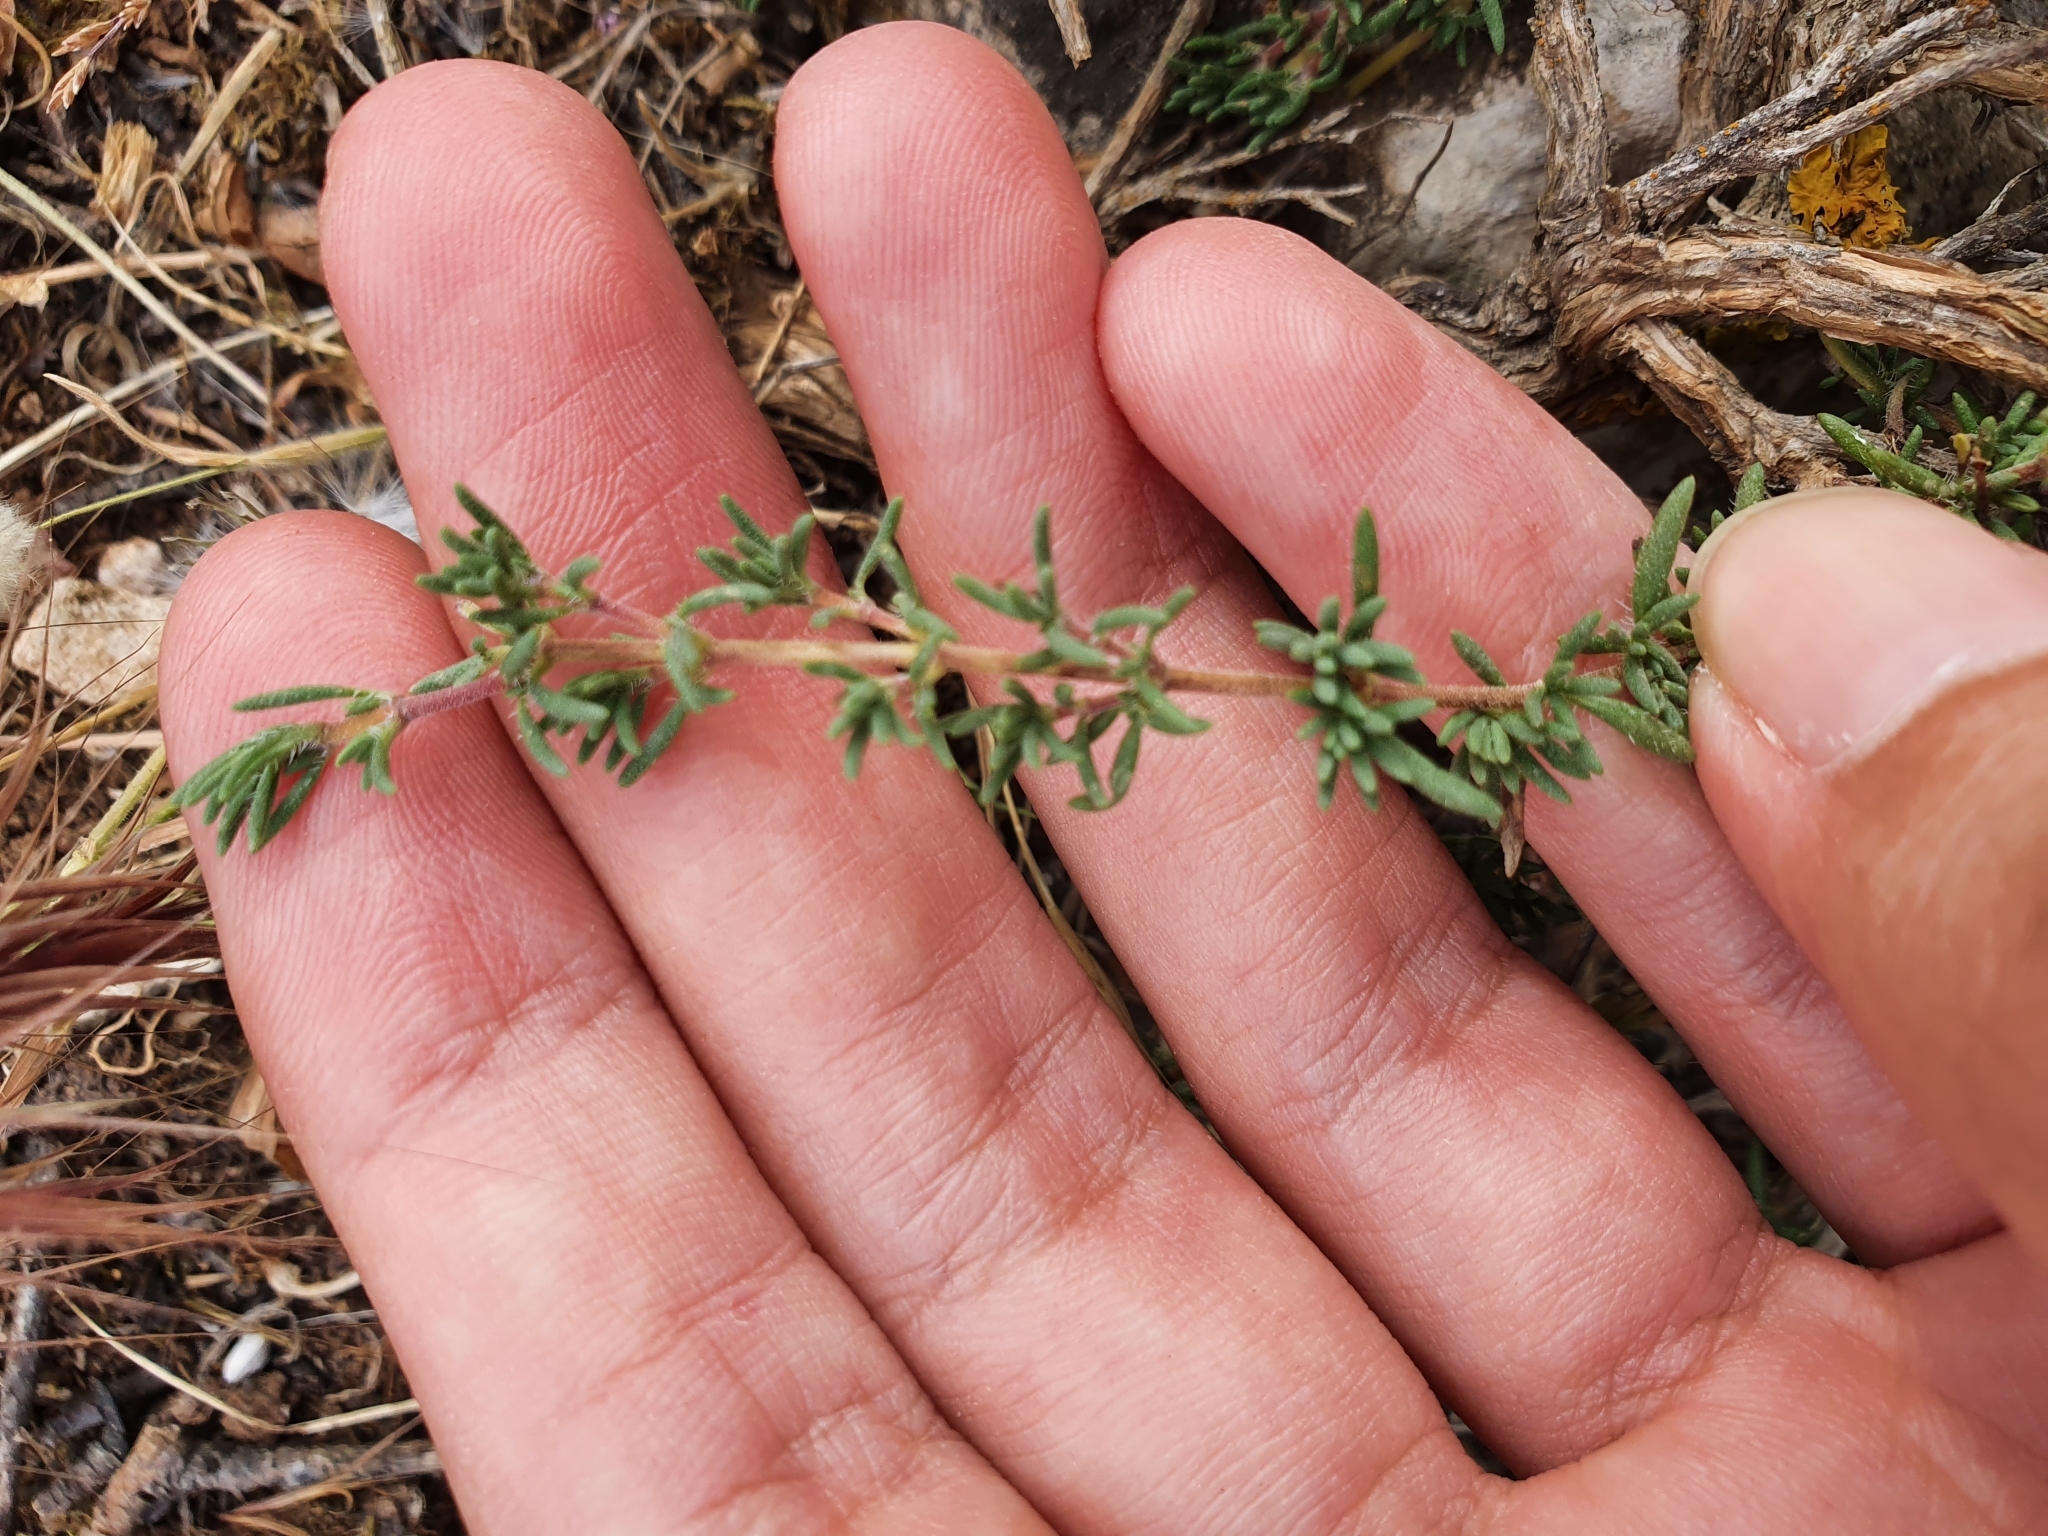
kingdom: Plantae
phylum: Tracheophyta
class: Magnoliopsida
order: Lamiales
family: Lamiaceae
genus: Thymus
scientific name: Thymus willdenowii
